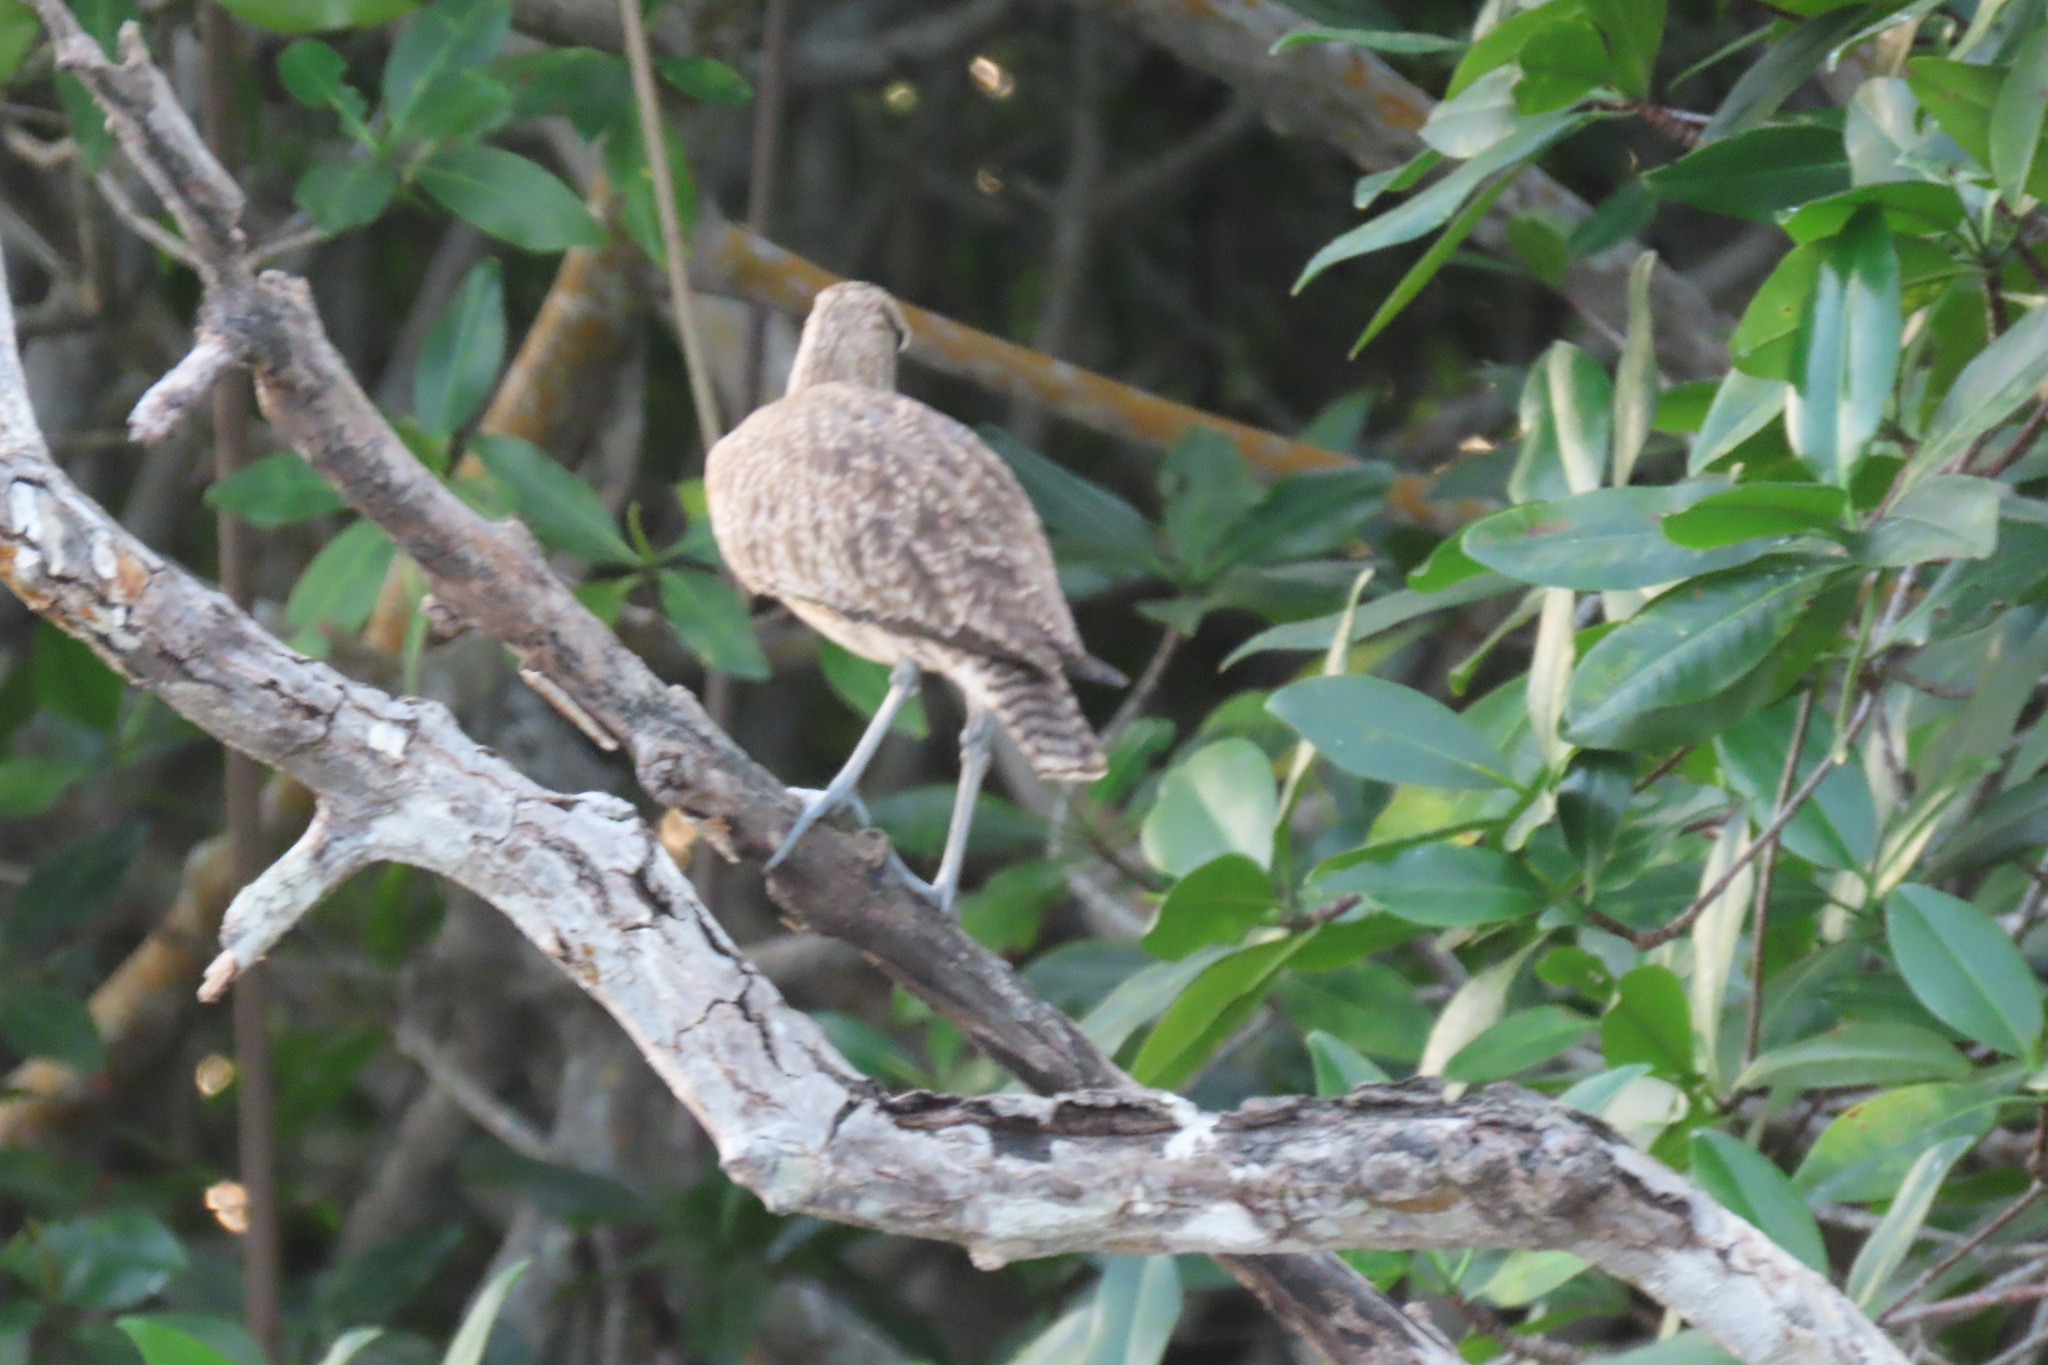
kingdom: Animalia
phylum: Chordata
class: Aves
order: Charadriiformes
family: Scolopacidae
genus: Numenius
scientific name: Numenius phaeopus
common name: Whimbrel
